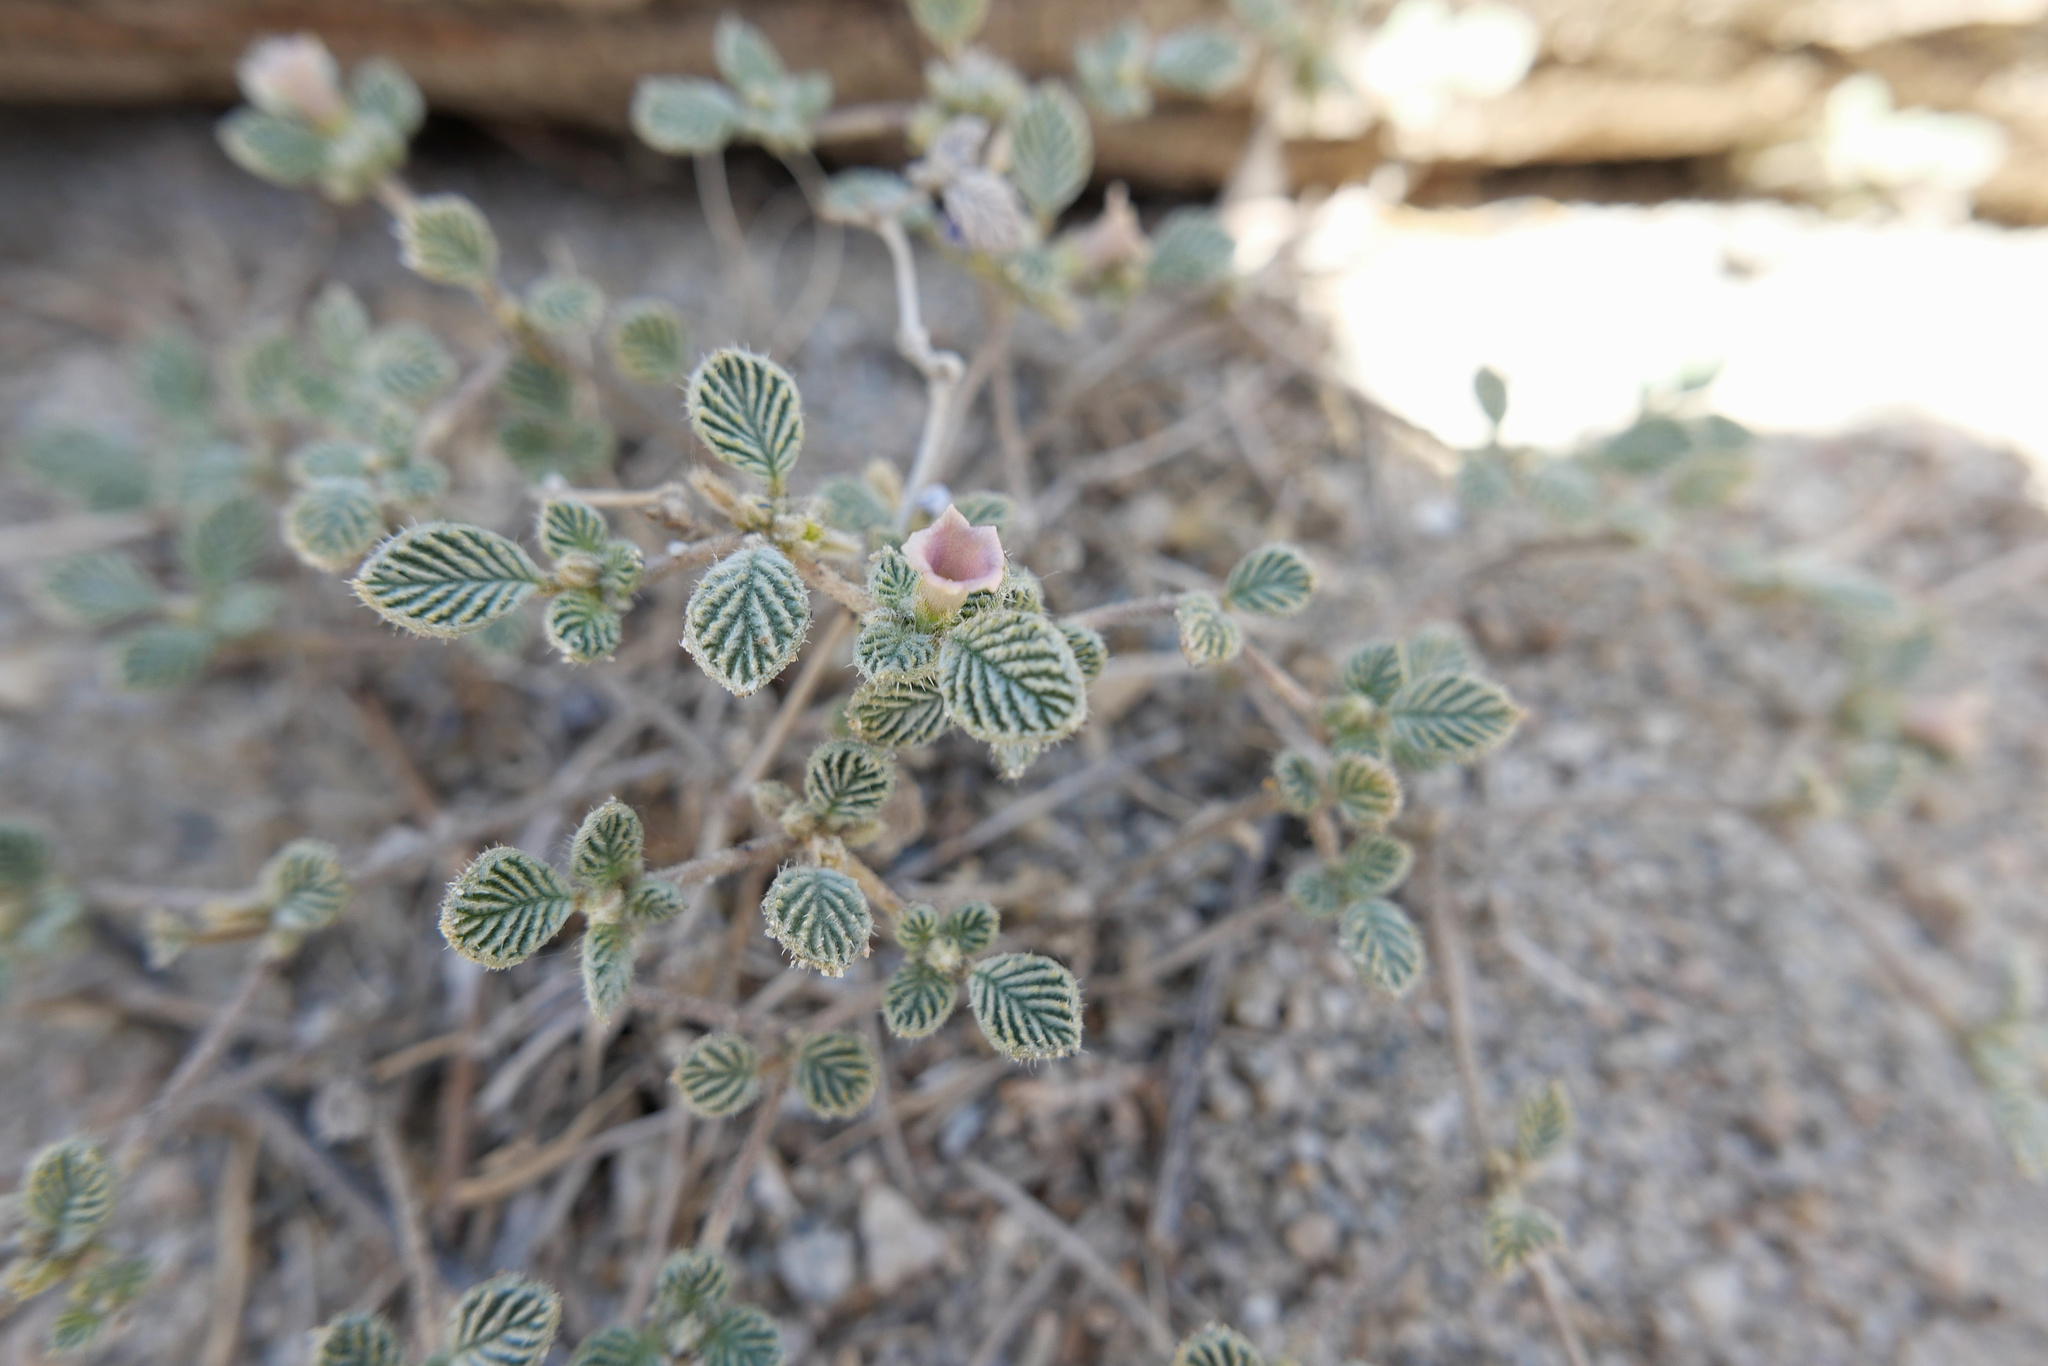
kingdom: Plantae
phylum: Tracheophyta
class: Magnoliopsida
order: Boraginales
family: Ehretiaceae
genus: Tiquilia
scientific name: Tiquilia plicata
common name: Fan-leaf tiquilia
